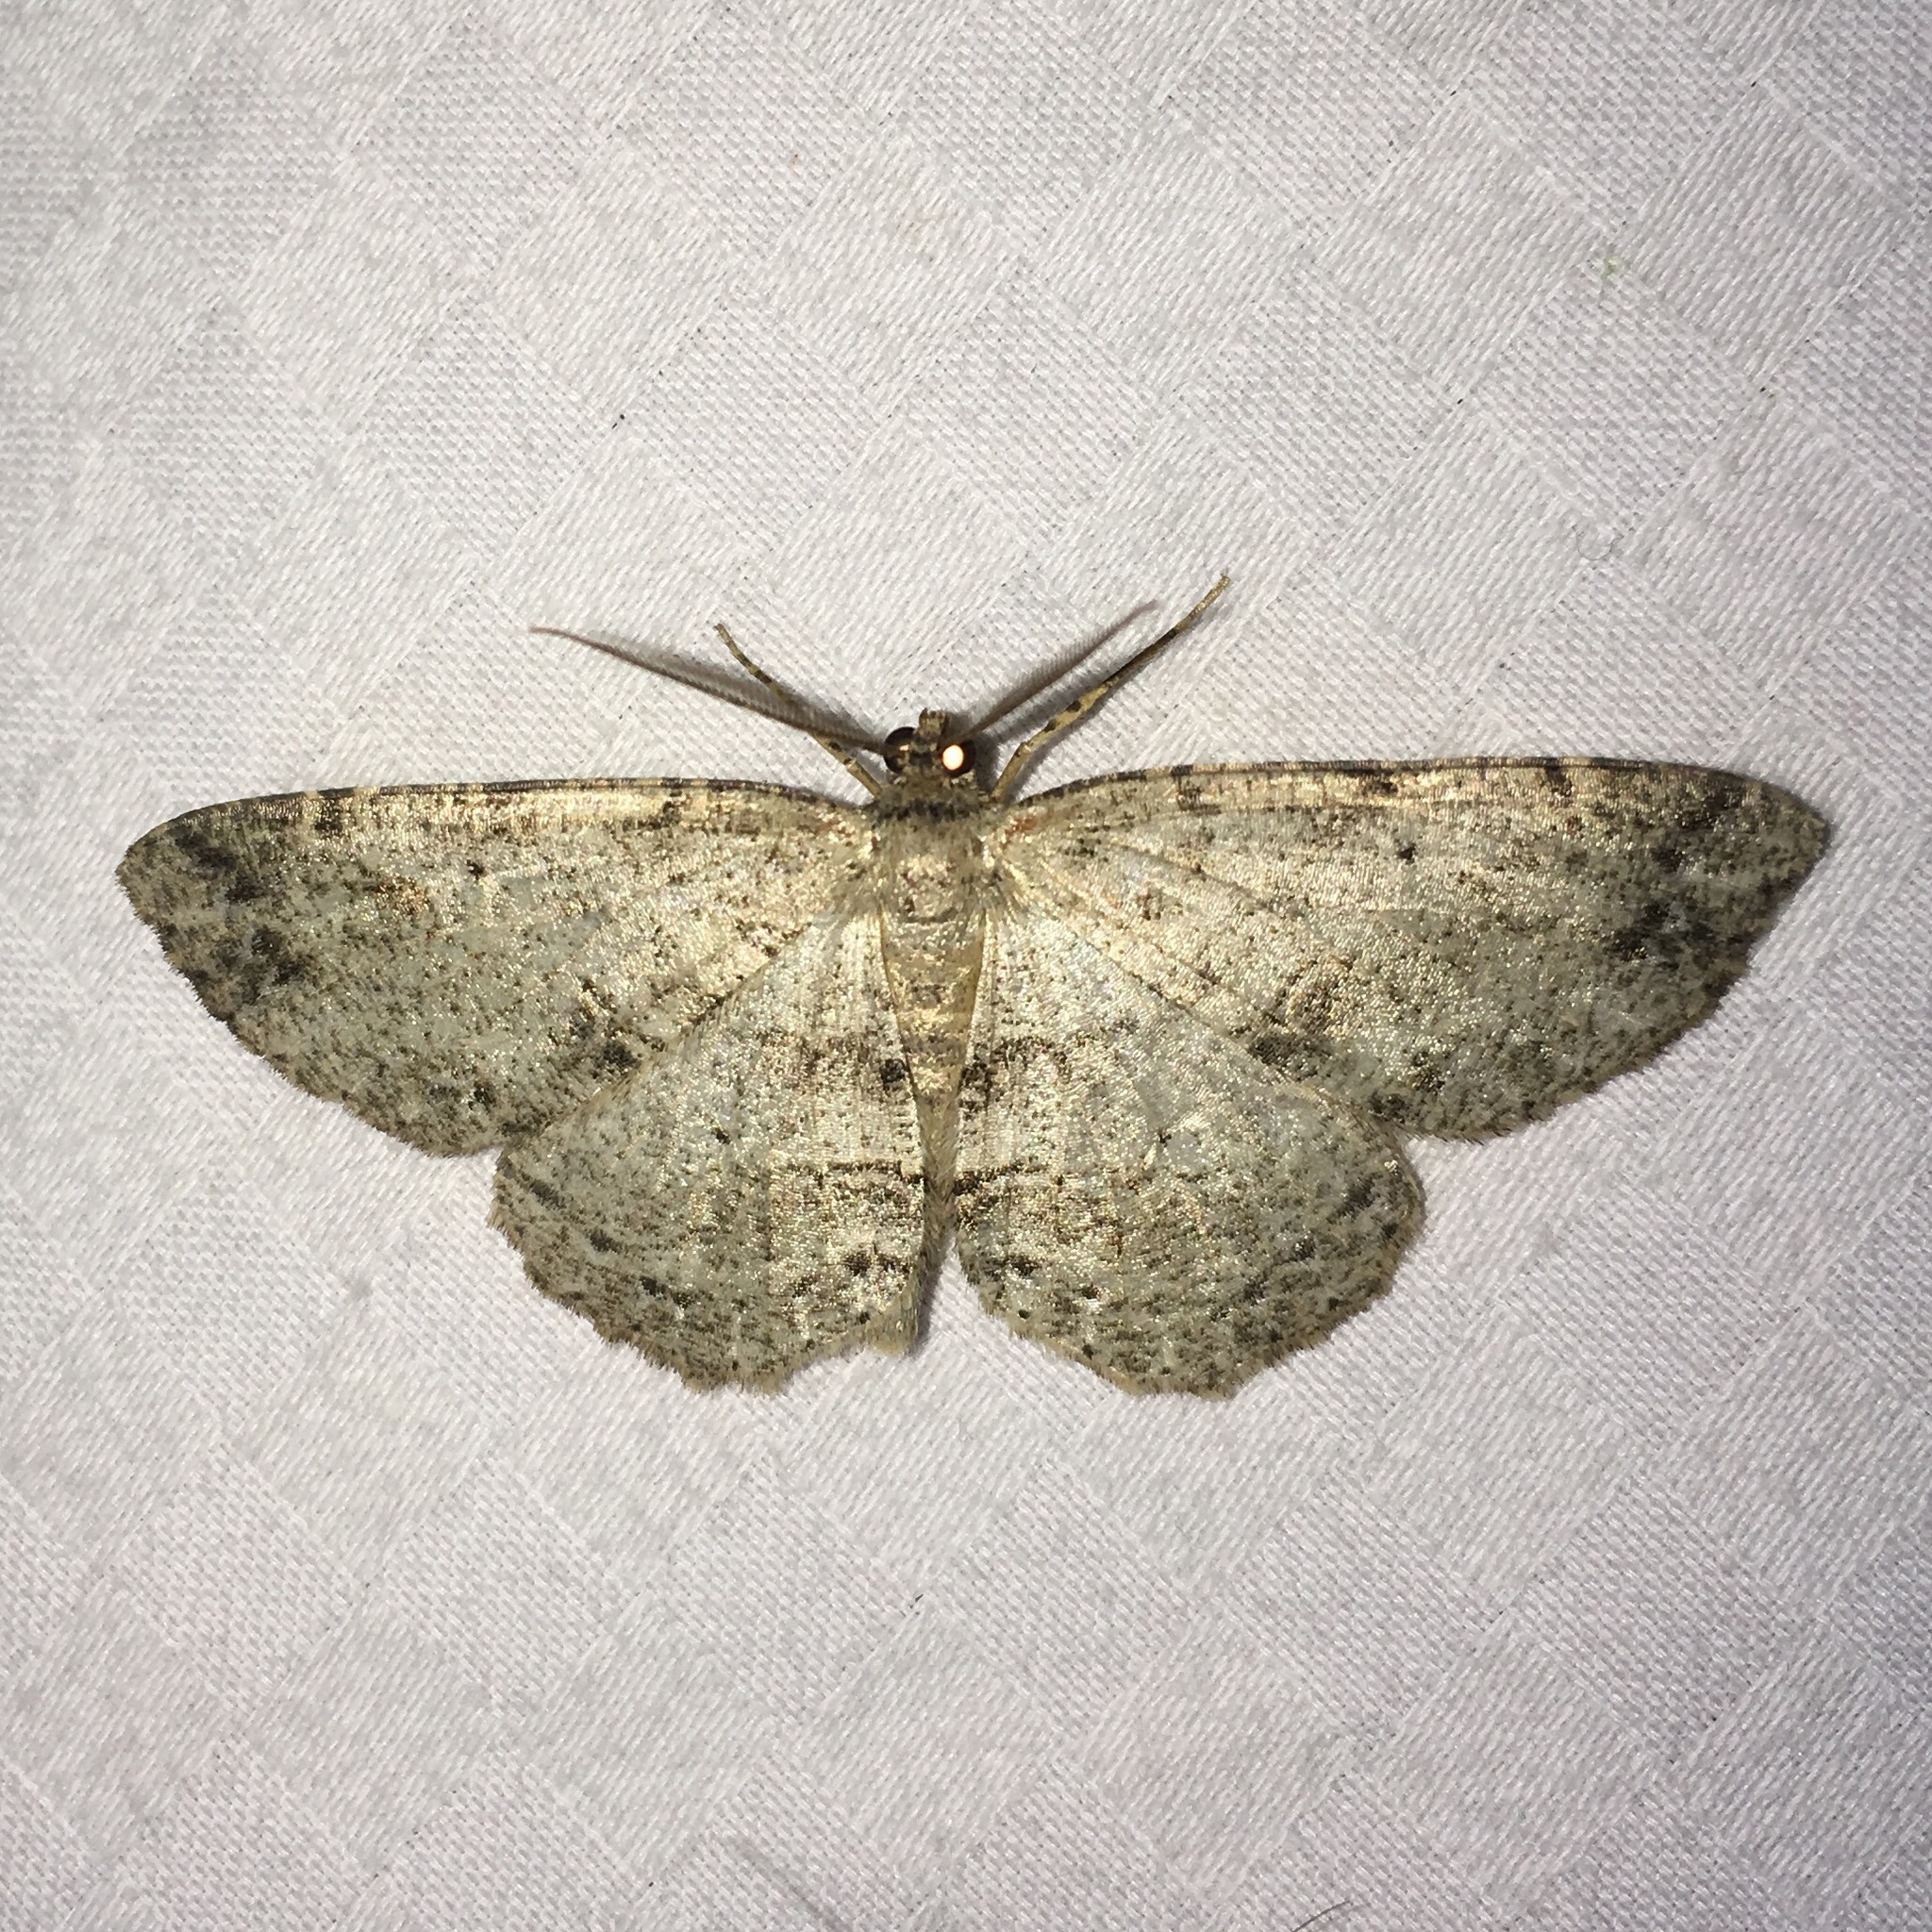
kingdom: Animalia
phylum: Arthropoda
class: Insecta
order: Lepidoptera
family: Geometridae
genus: Melanolophia
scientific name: Melanolophia canadaria
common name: Canadian melanolophia
